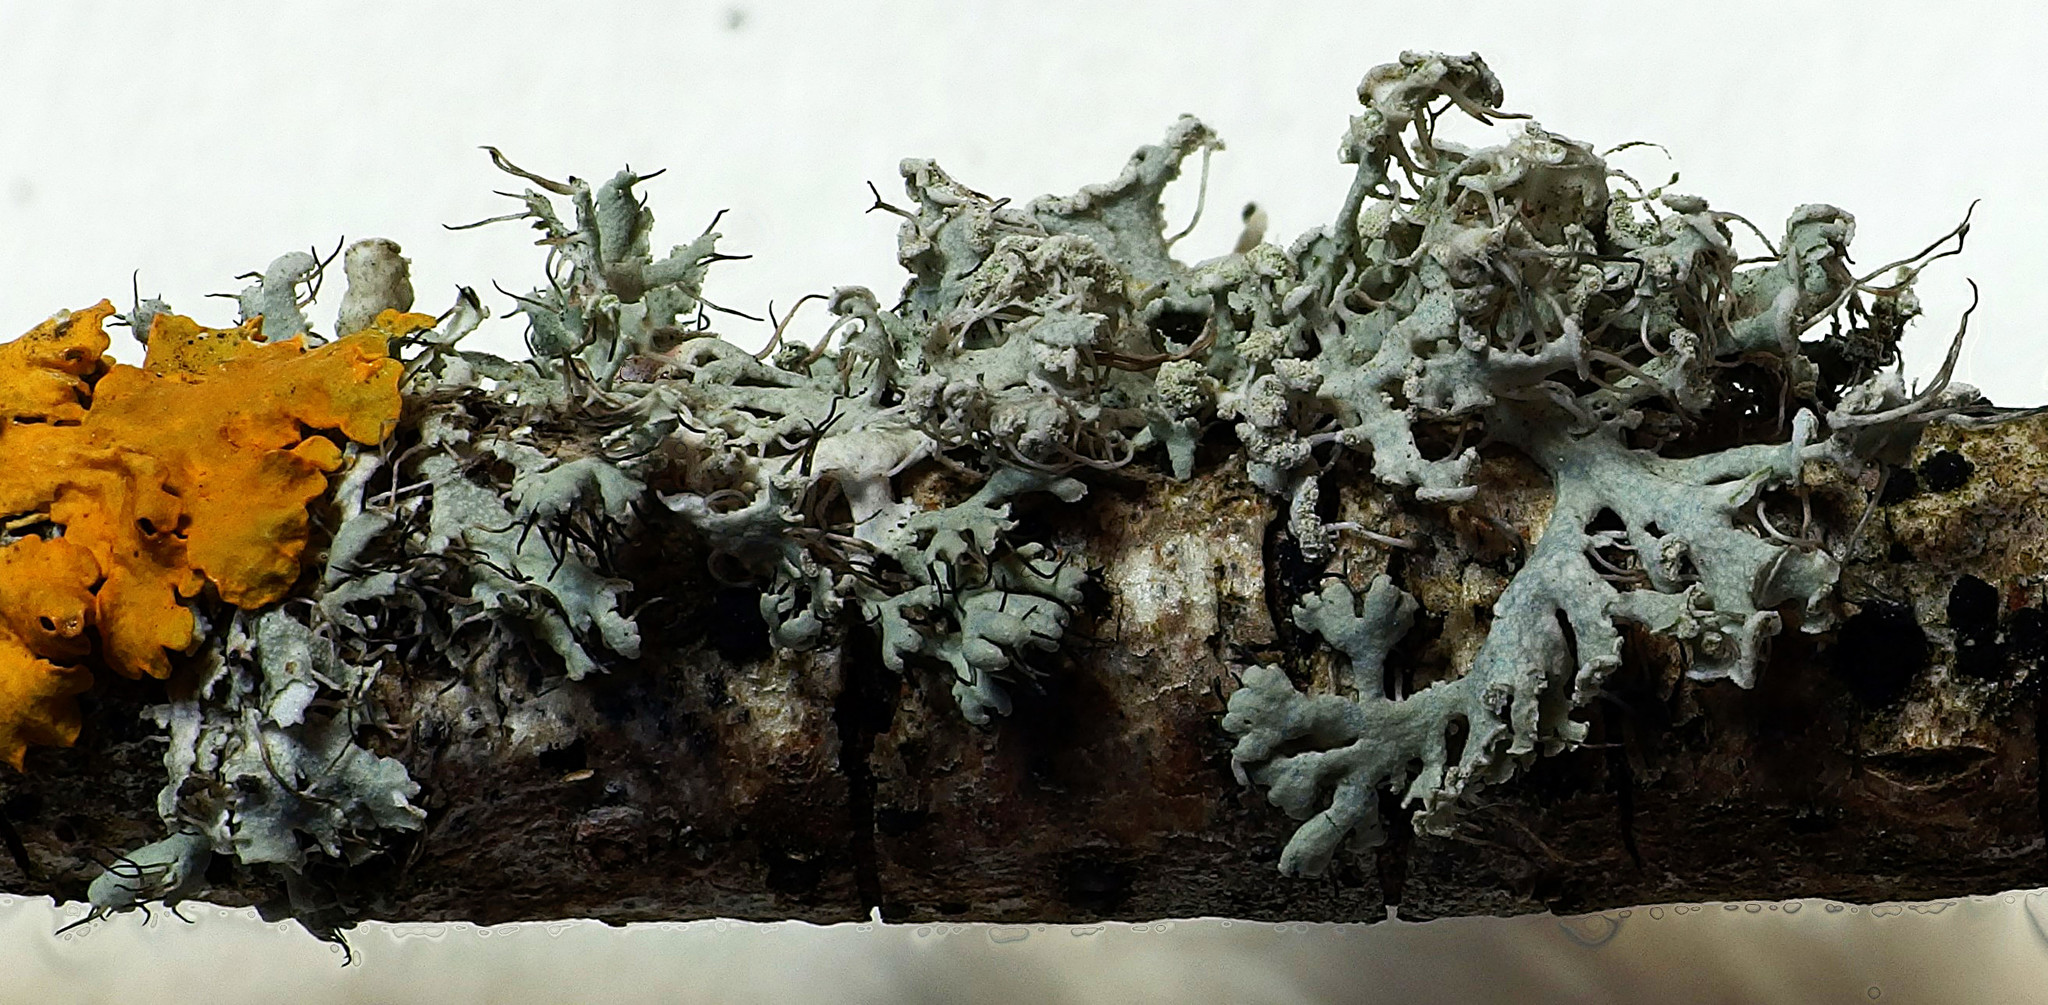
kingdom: Fungi
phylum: Ascomycota
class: Lecanoromycetes
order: Caliciales
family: Physciaceae
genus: Physcia
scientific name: Physcia adscendens
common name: Hooded rosette lichen
